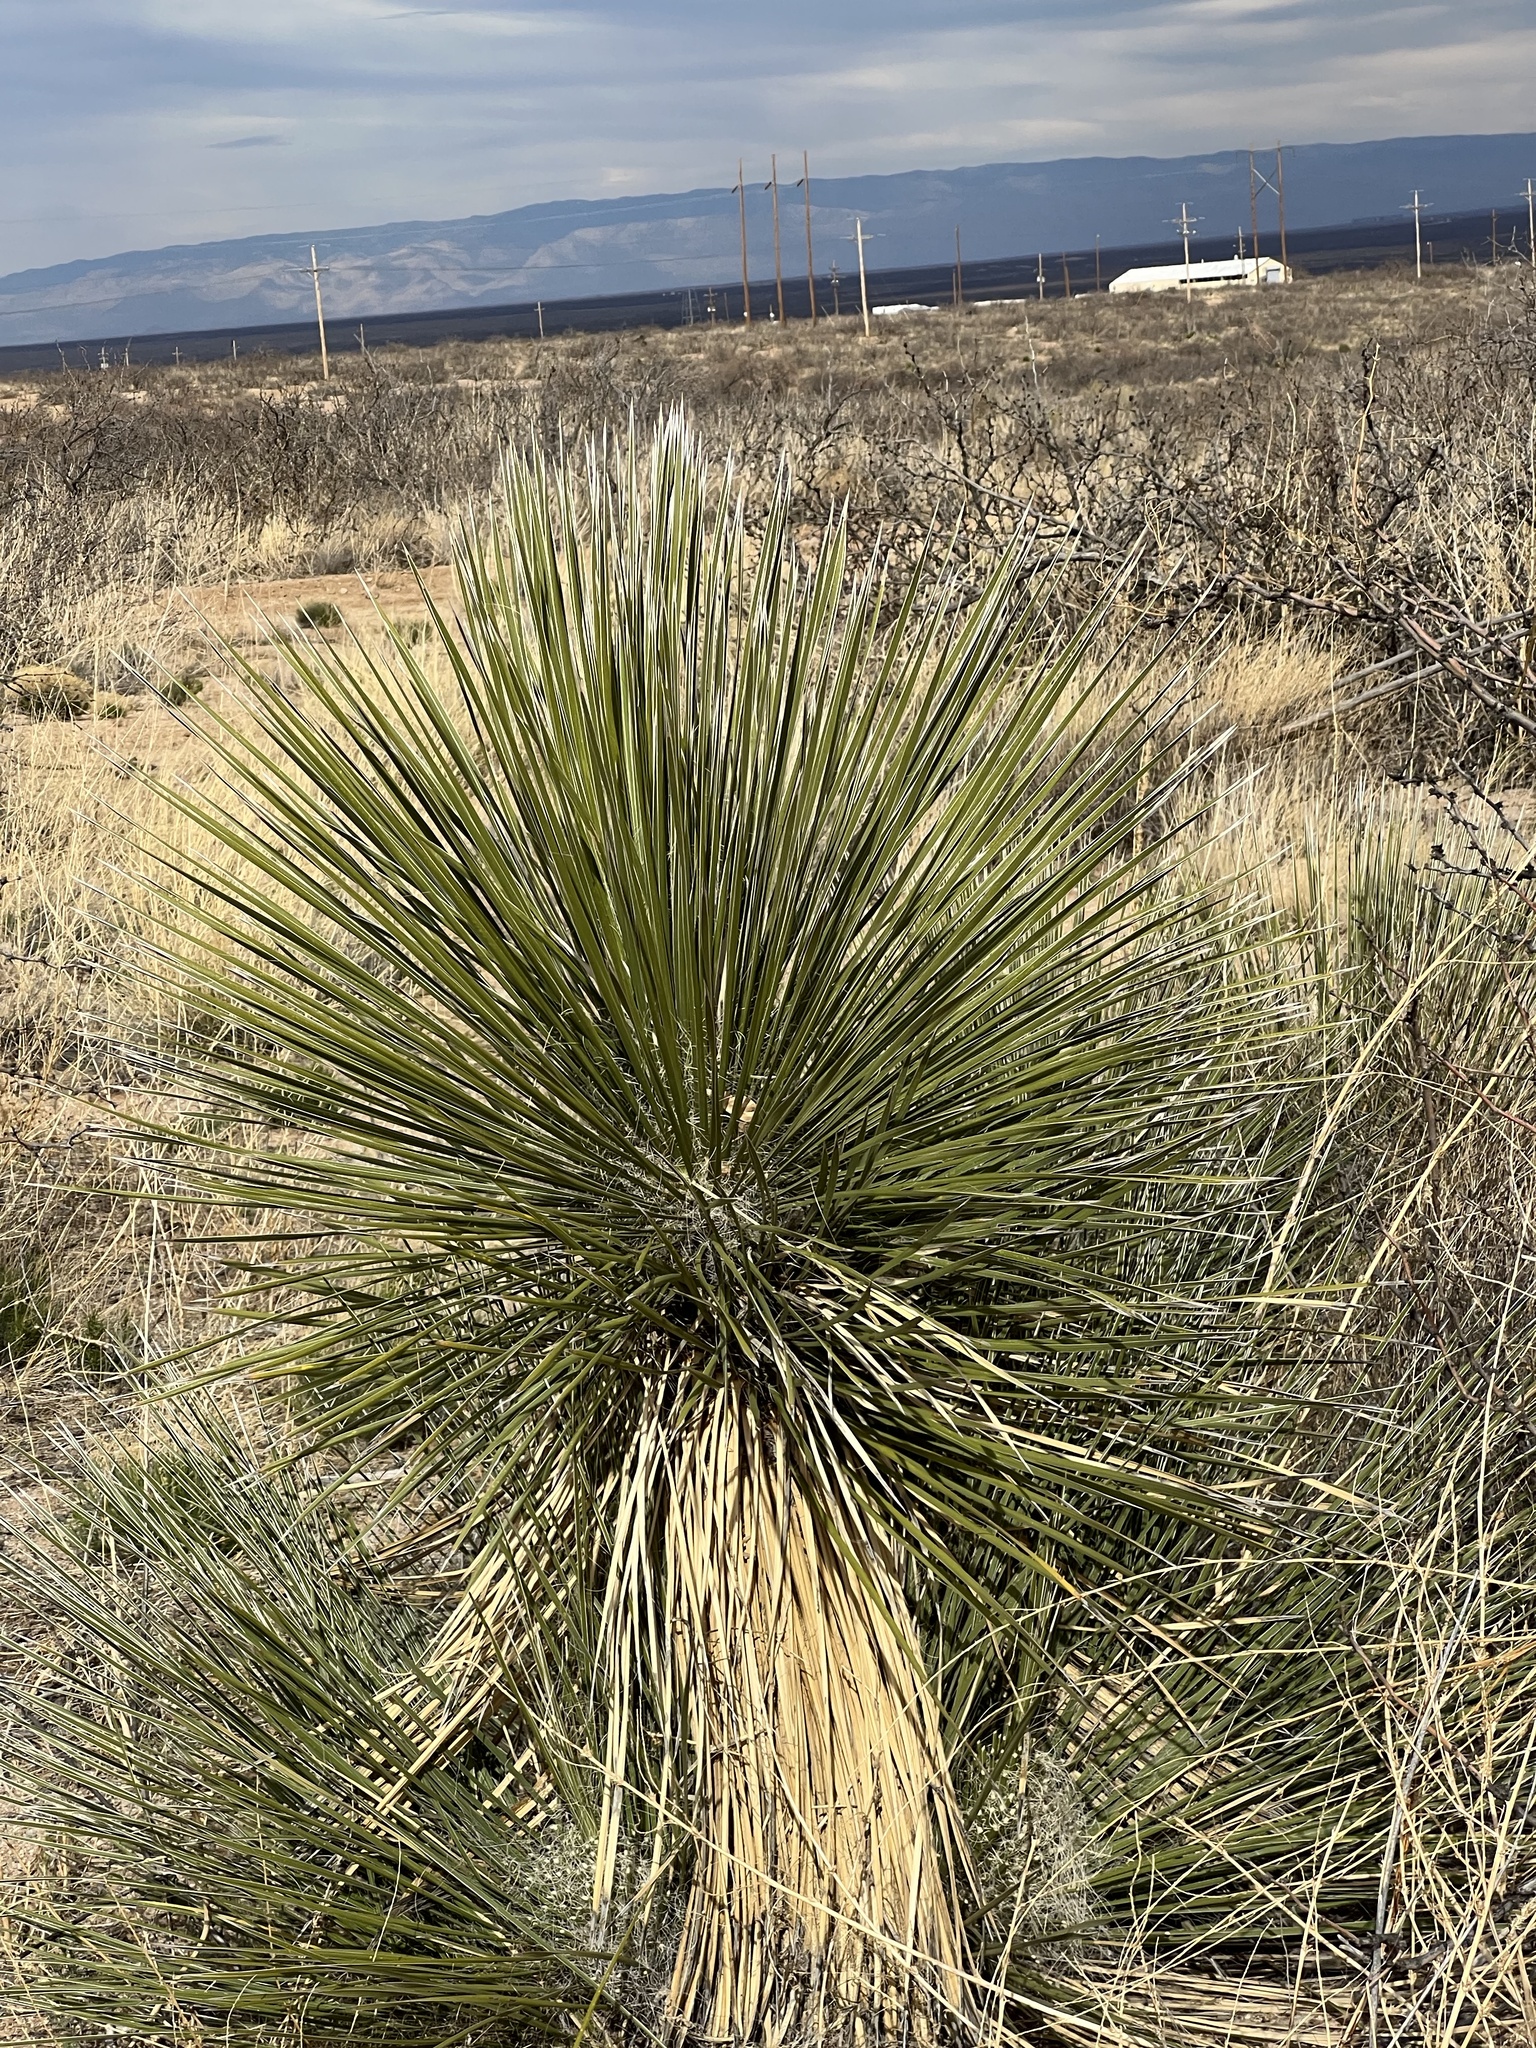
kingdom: Plantae
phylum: Tracheophyta
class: Liliopsida
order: Asparagales
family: Asparagaceae
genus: Yucca
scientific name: Yucca elata
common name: Palmella
